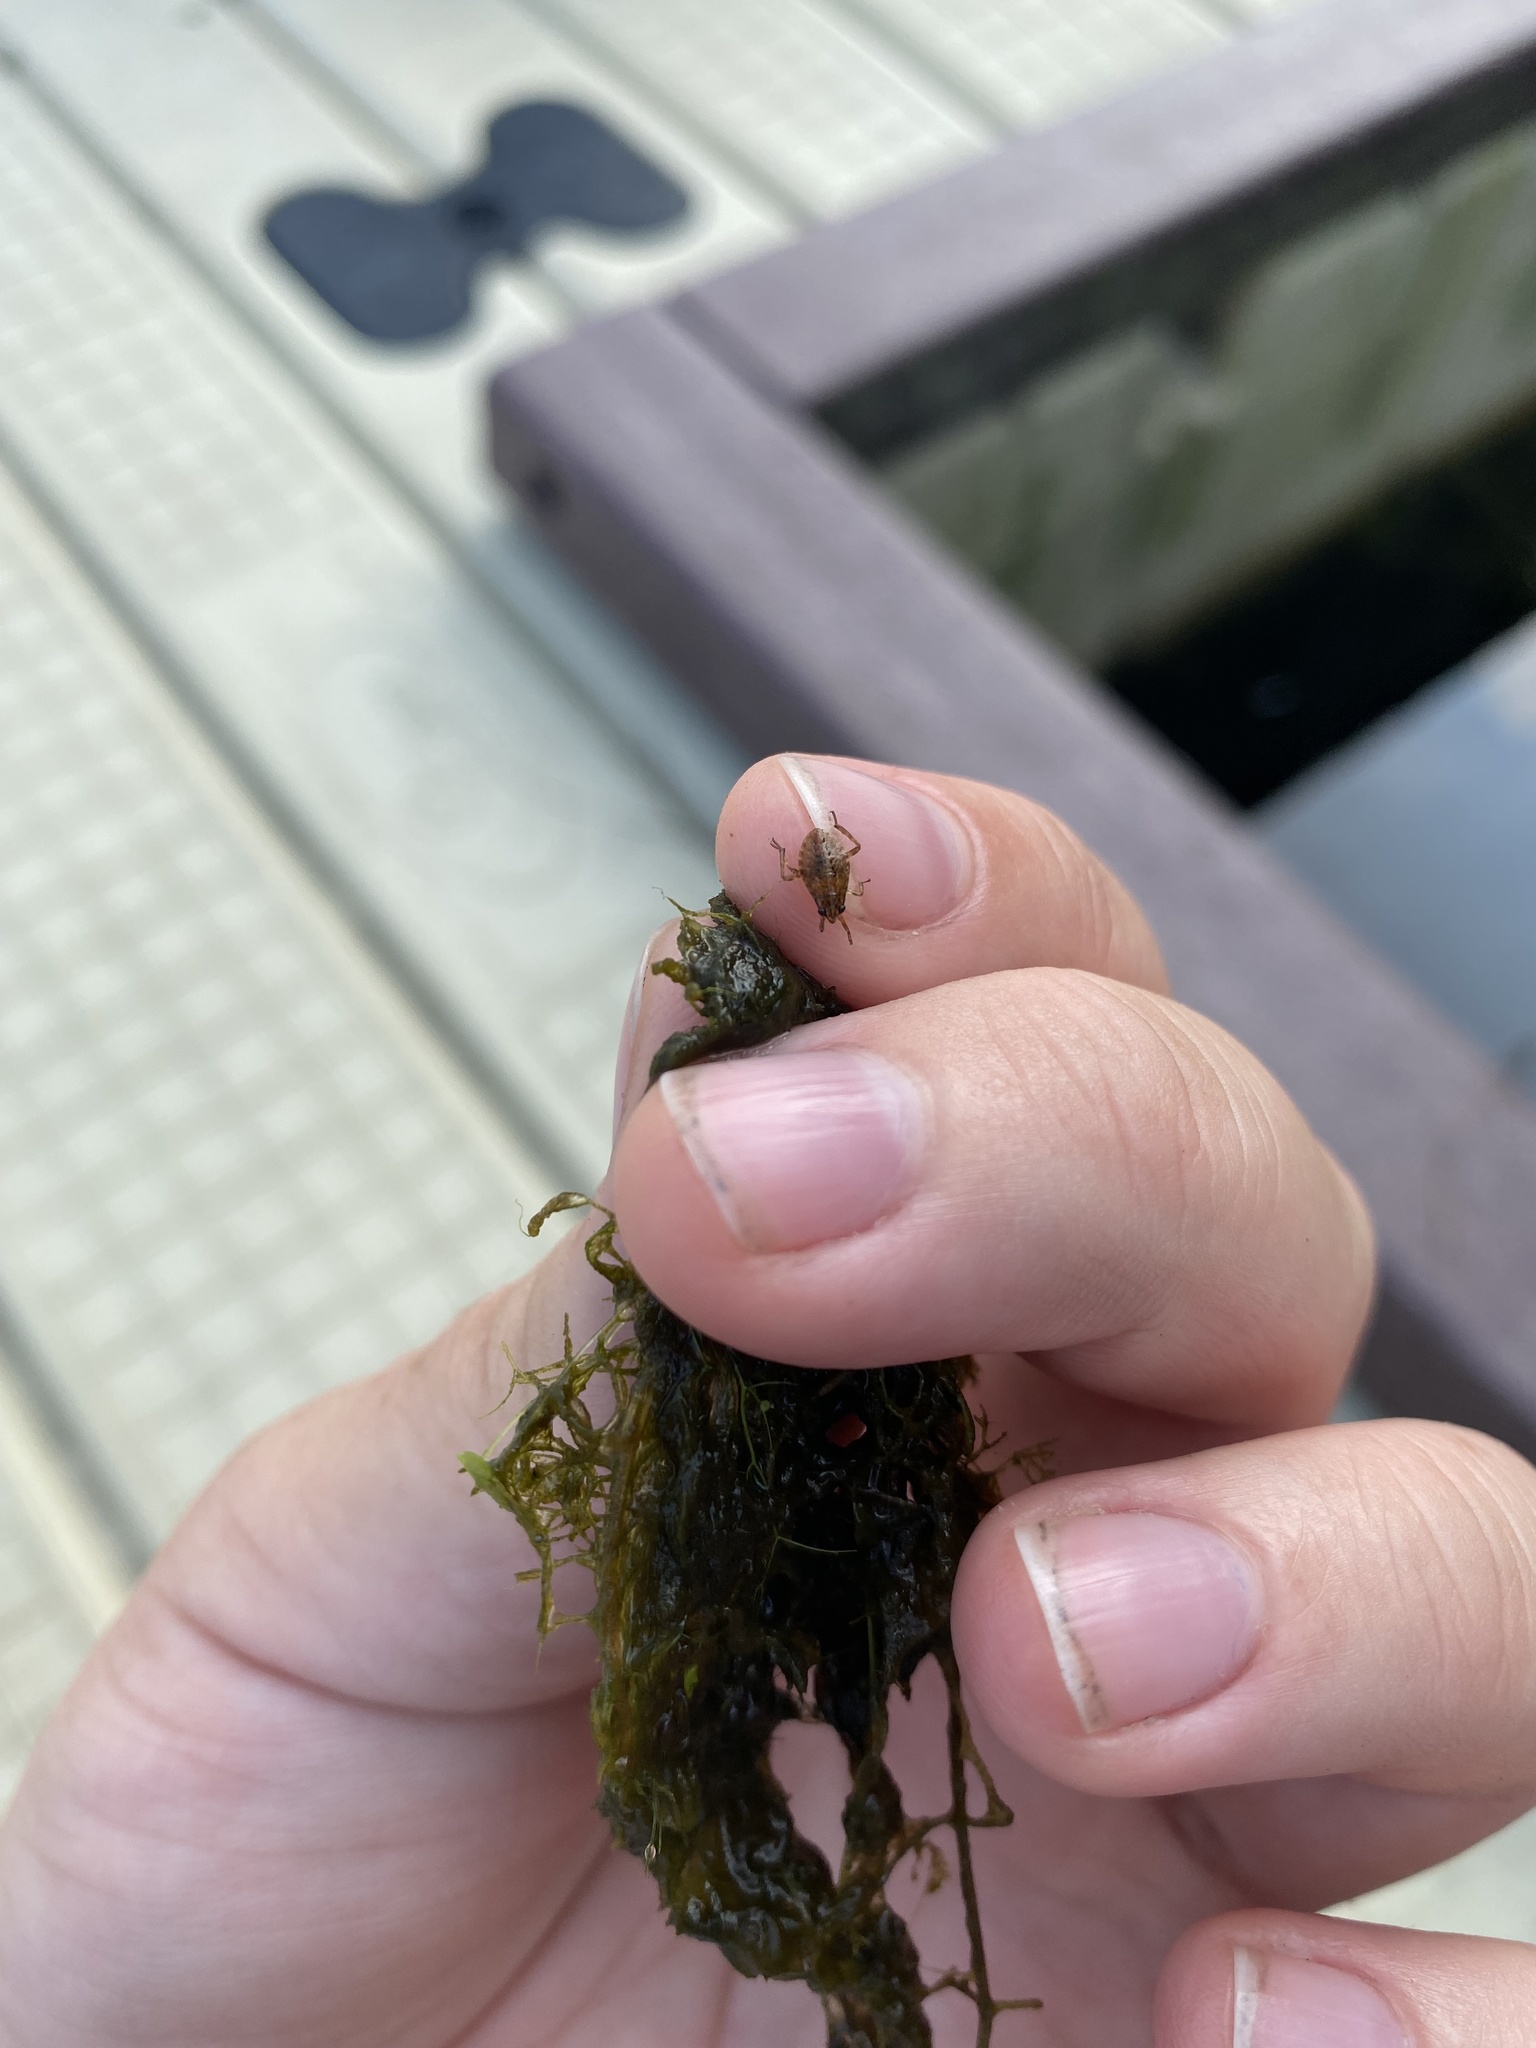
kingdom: Animalia
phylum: Arthropoda
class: Insecta
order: Hemiptera
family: Belostomatidae
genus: Belostoma
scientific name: Belostoma
